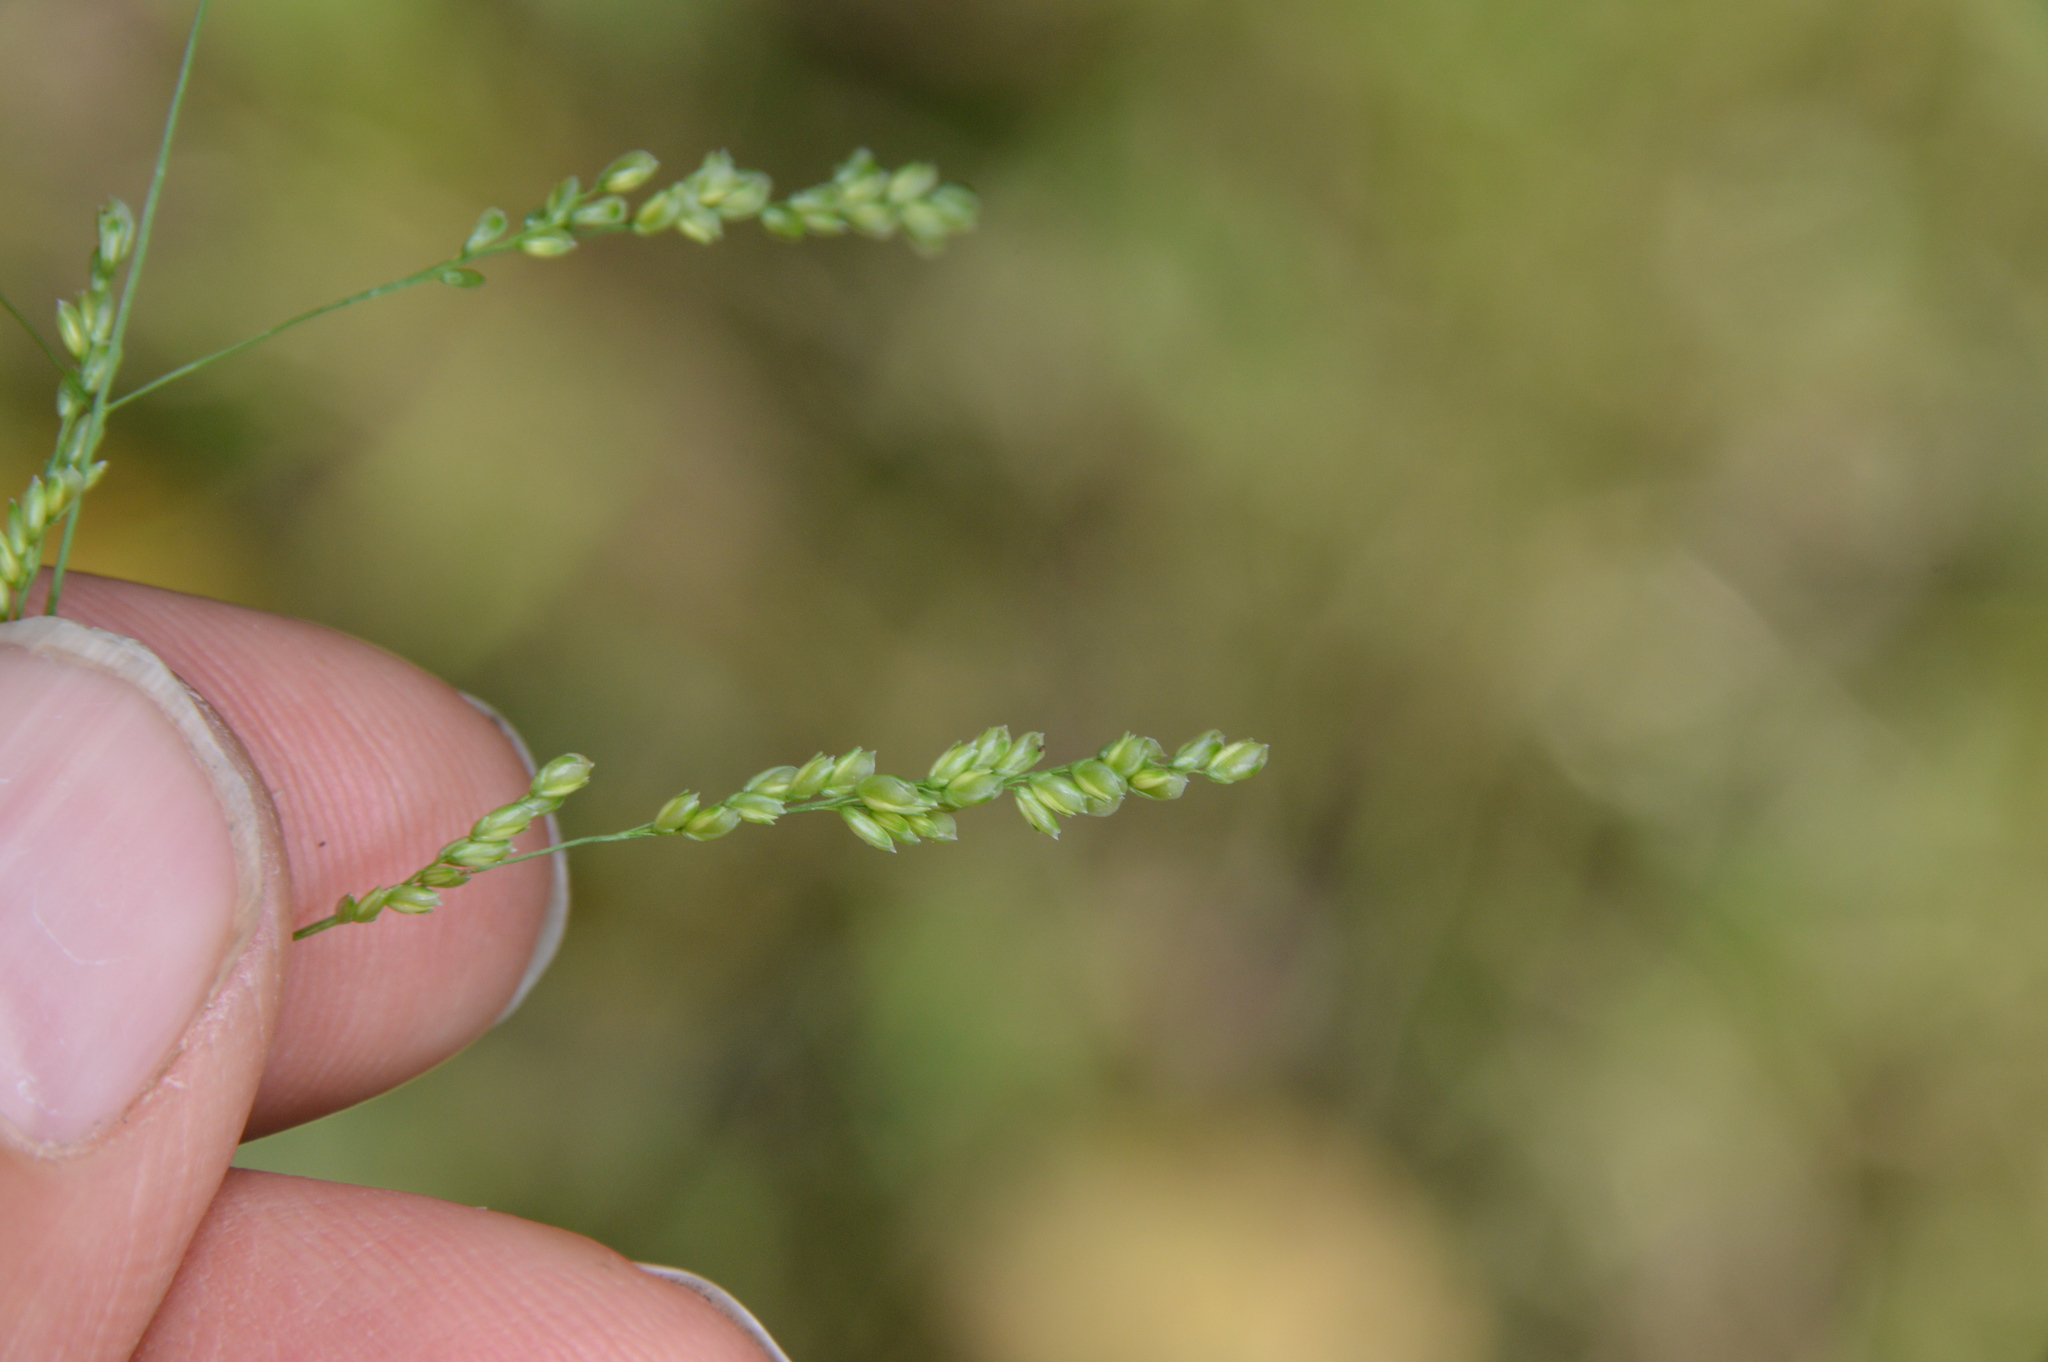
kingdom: Plantae
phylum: Tracheophyta
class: Liliopsida
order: Poales
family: Poaceae
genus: Steinchisma
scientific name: Steinchisma hians
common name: Gaping panic grass
